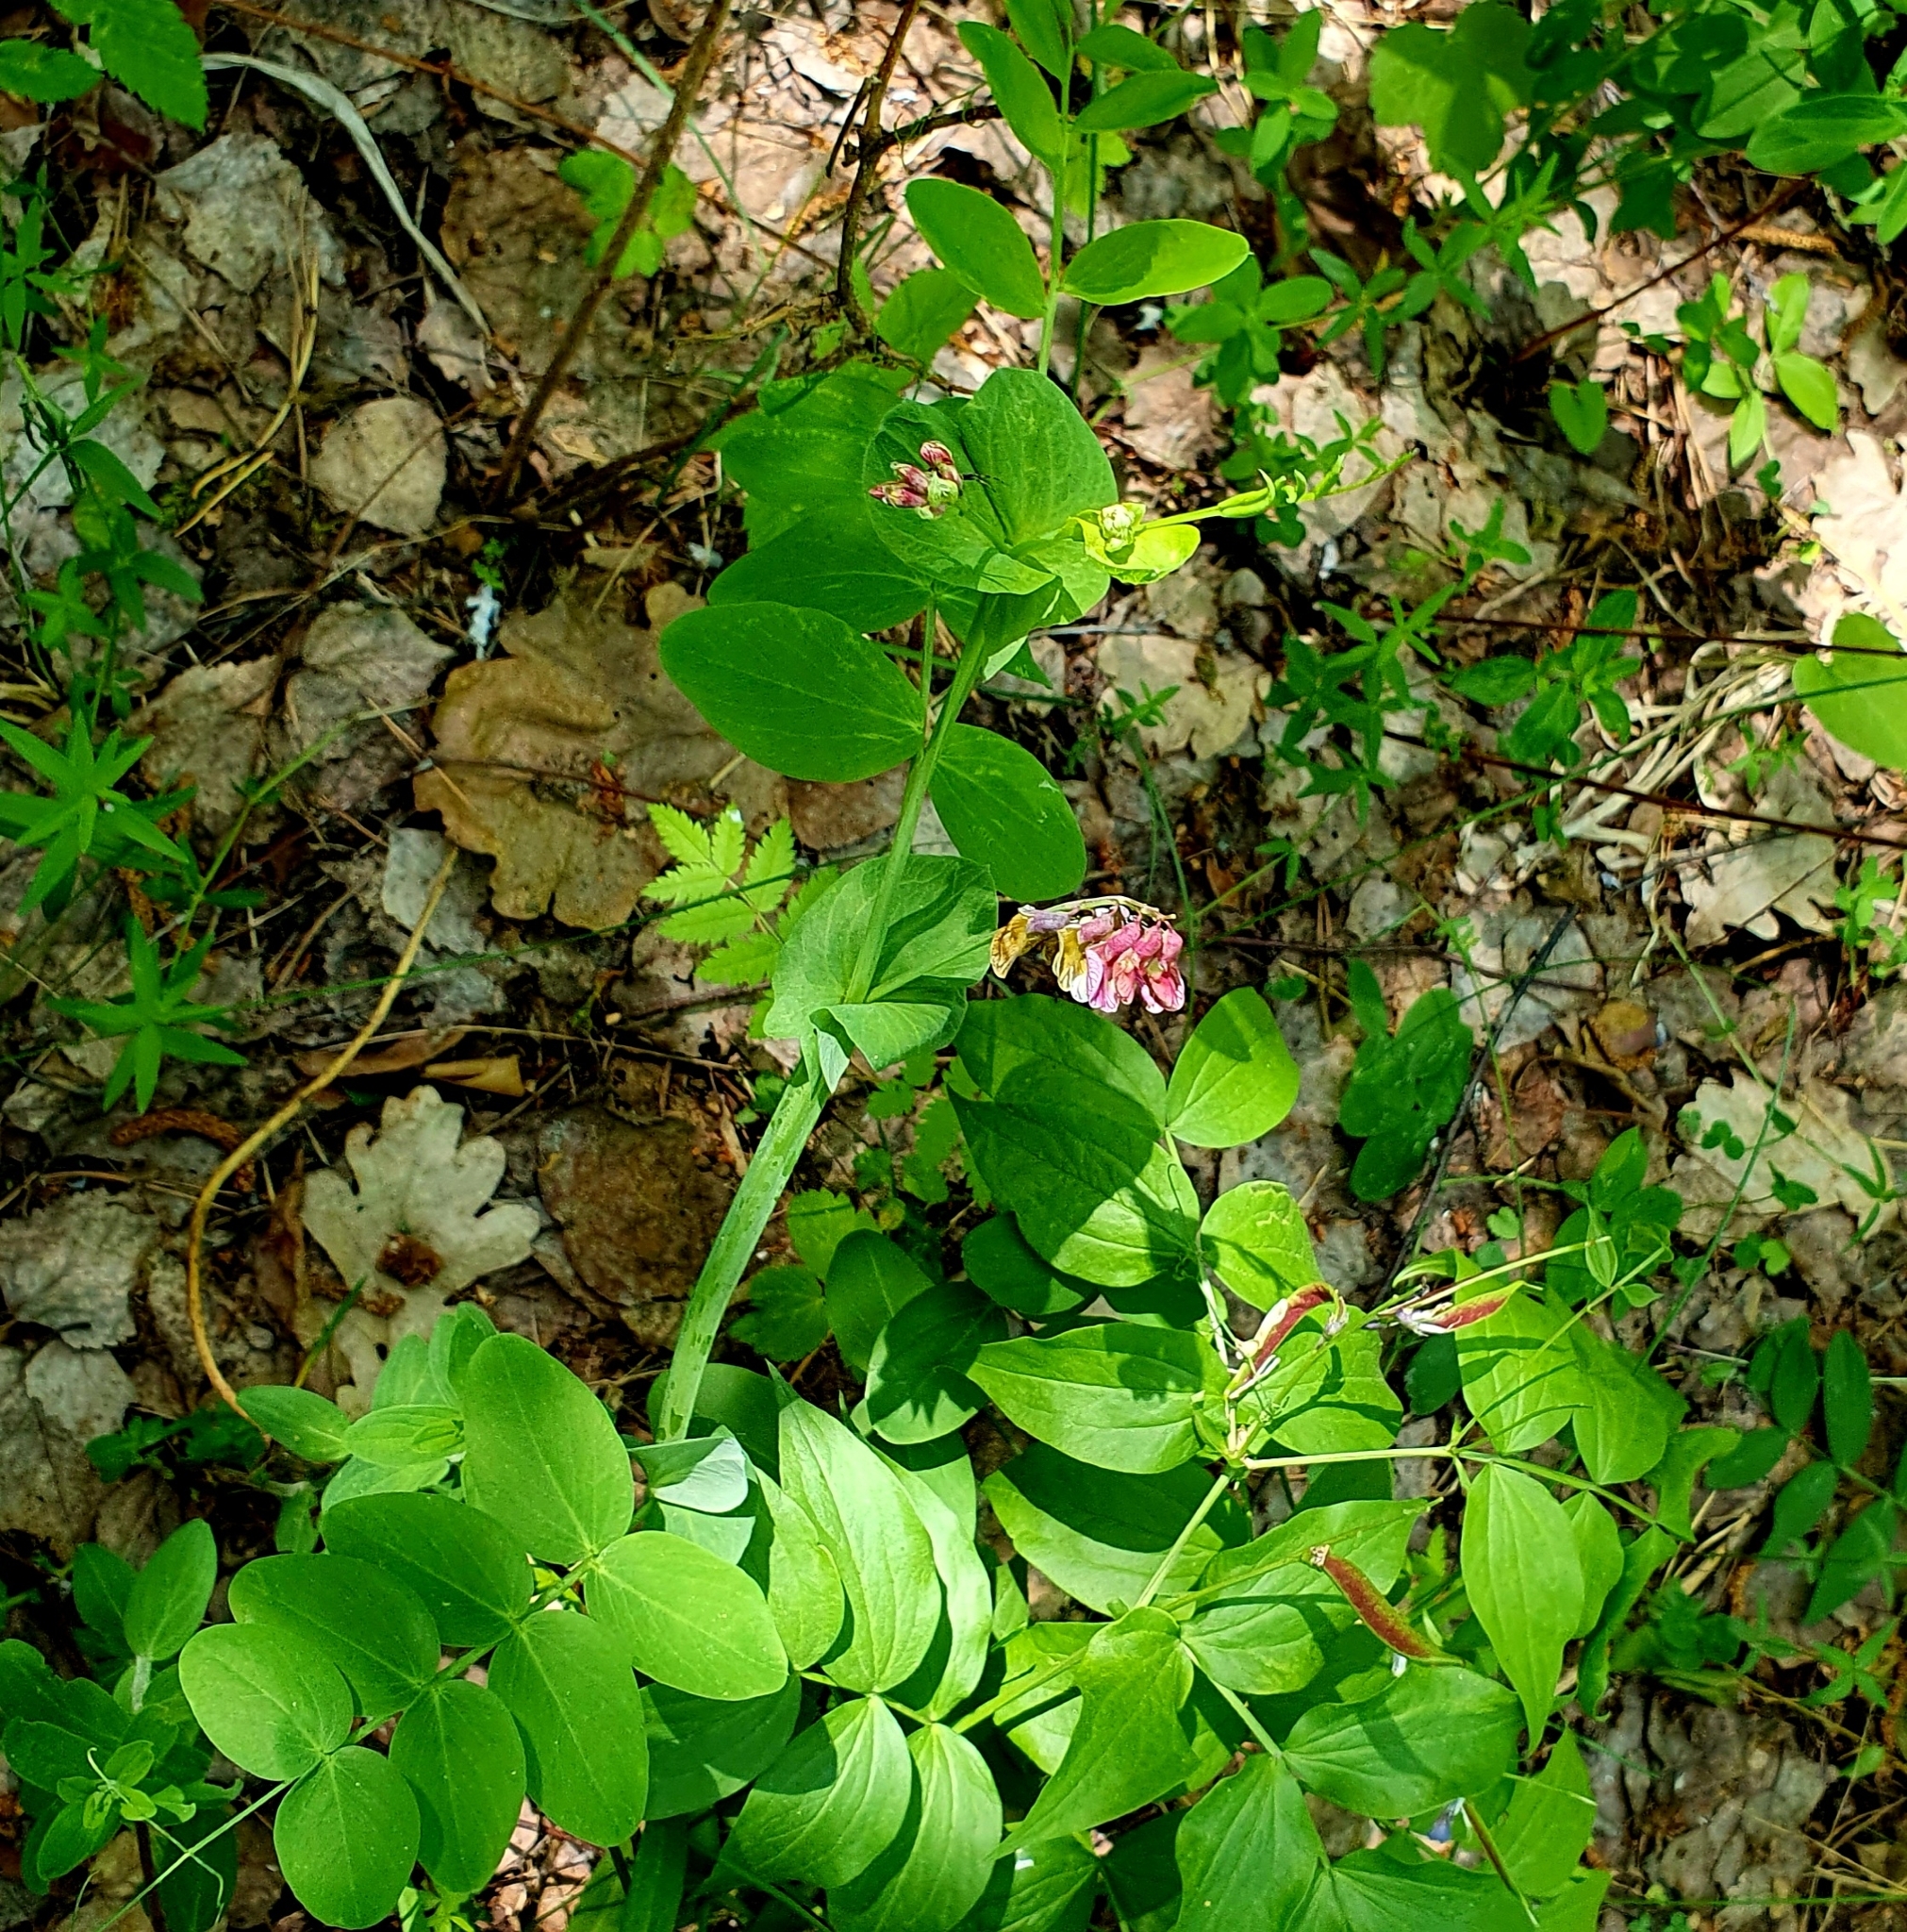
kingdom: Plantae
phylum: Tracheophyta
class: Magnoliopsida
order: Fabales
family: Fabaceae
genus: Lathyrus
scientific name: Lathyrus pisiformis
